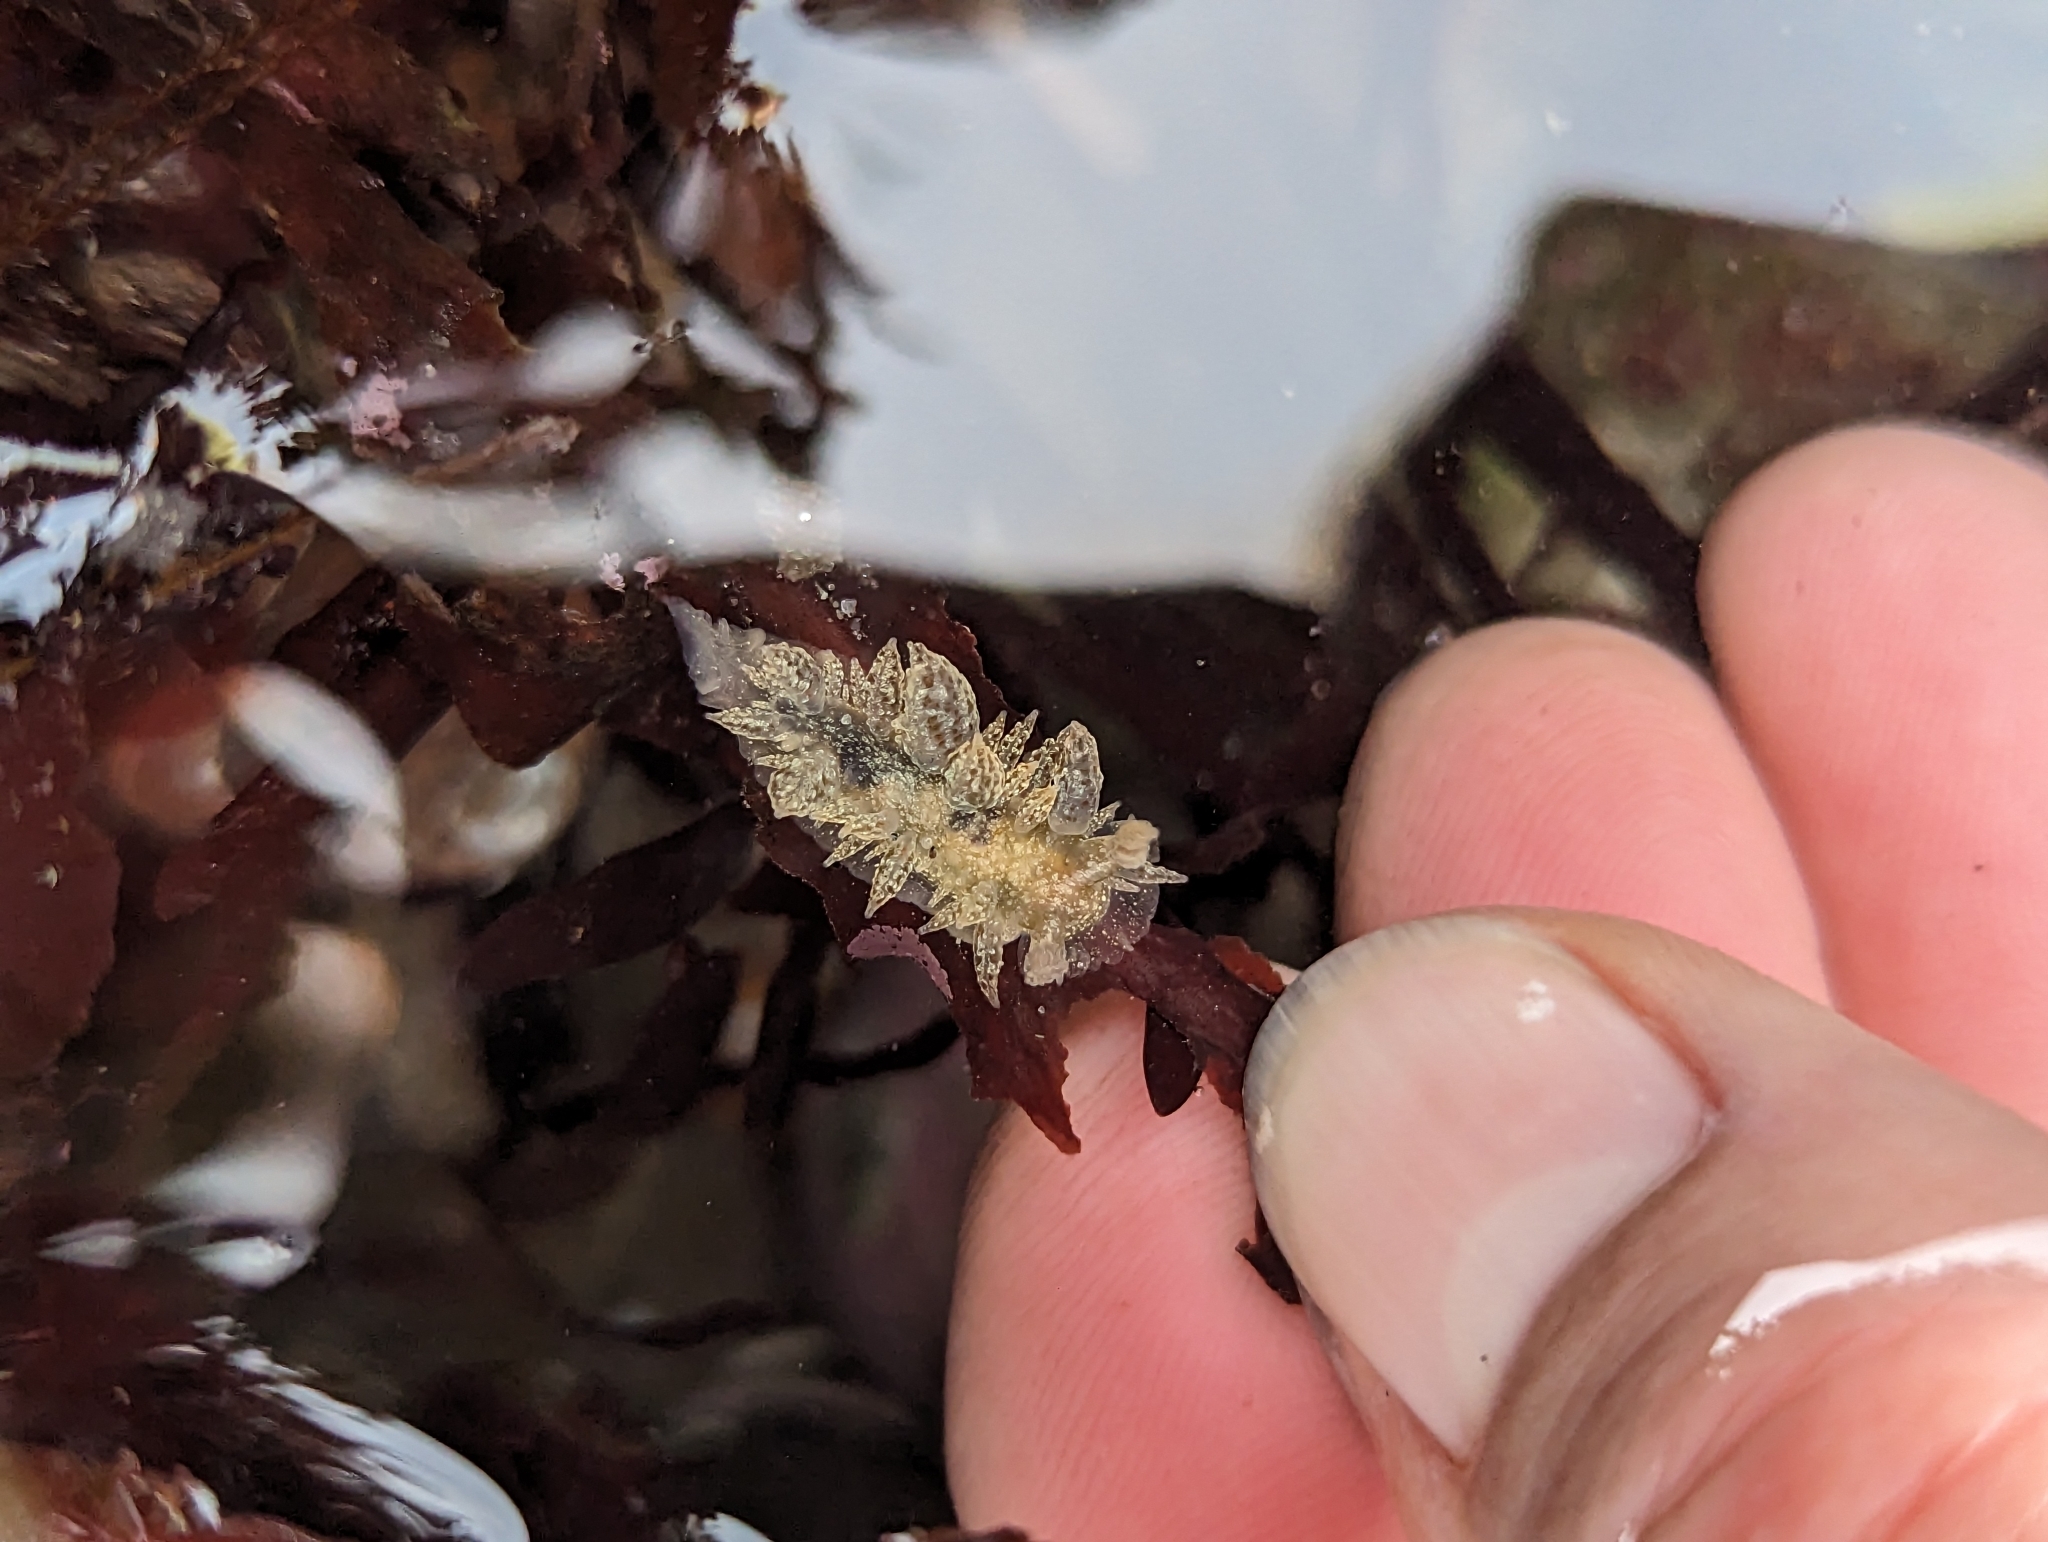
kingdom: Animalia
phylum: Mollusca
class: Gastropoda
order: Nudibranchia
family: Dironidae
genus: Dirona
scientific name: Dirona picta
